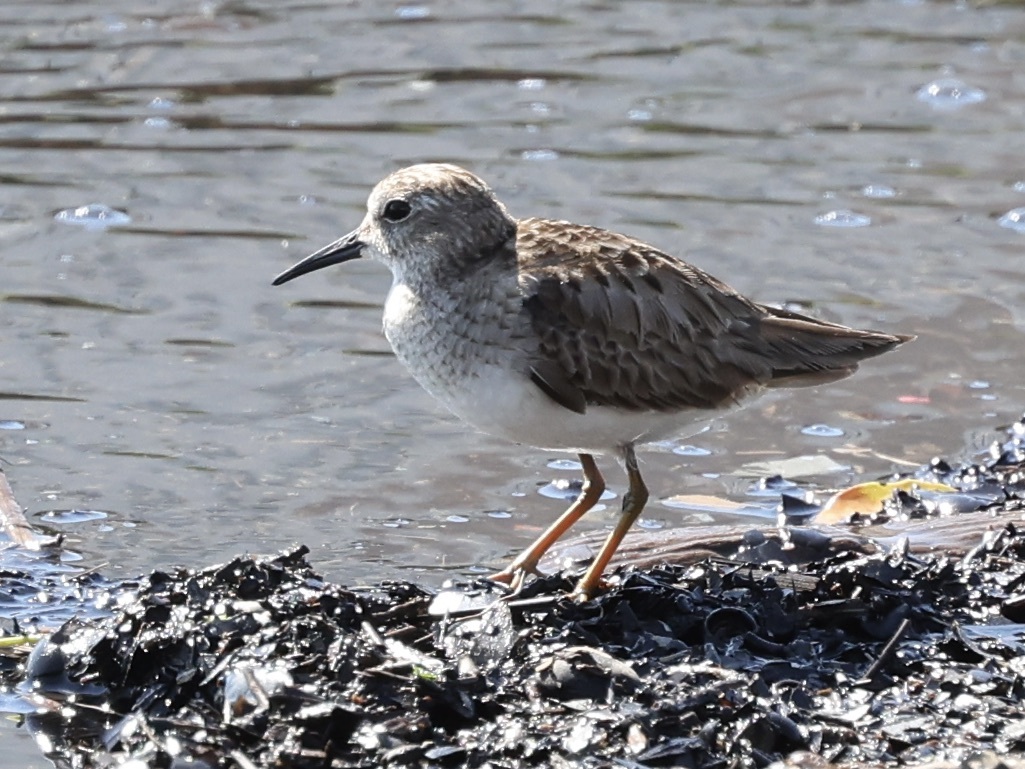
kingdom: Animalia
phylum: Chordata
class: Aves
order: Charadriiformes
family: Scolopacidae
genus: Calidris
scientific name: Calidris minutilla
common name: Least sandpiper
